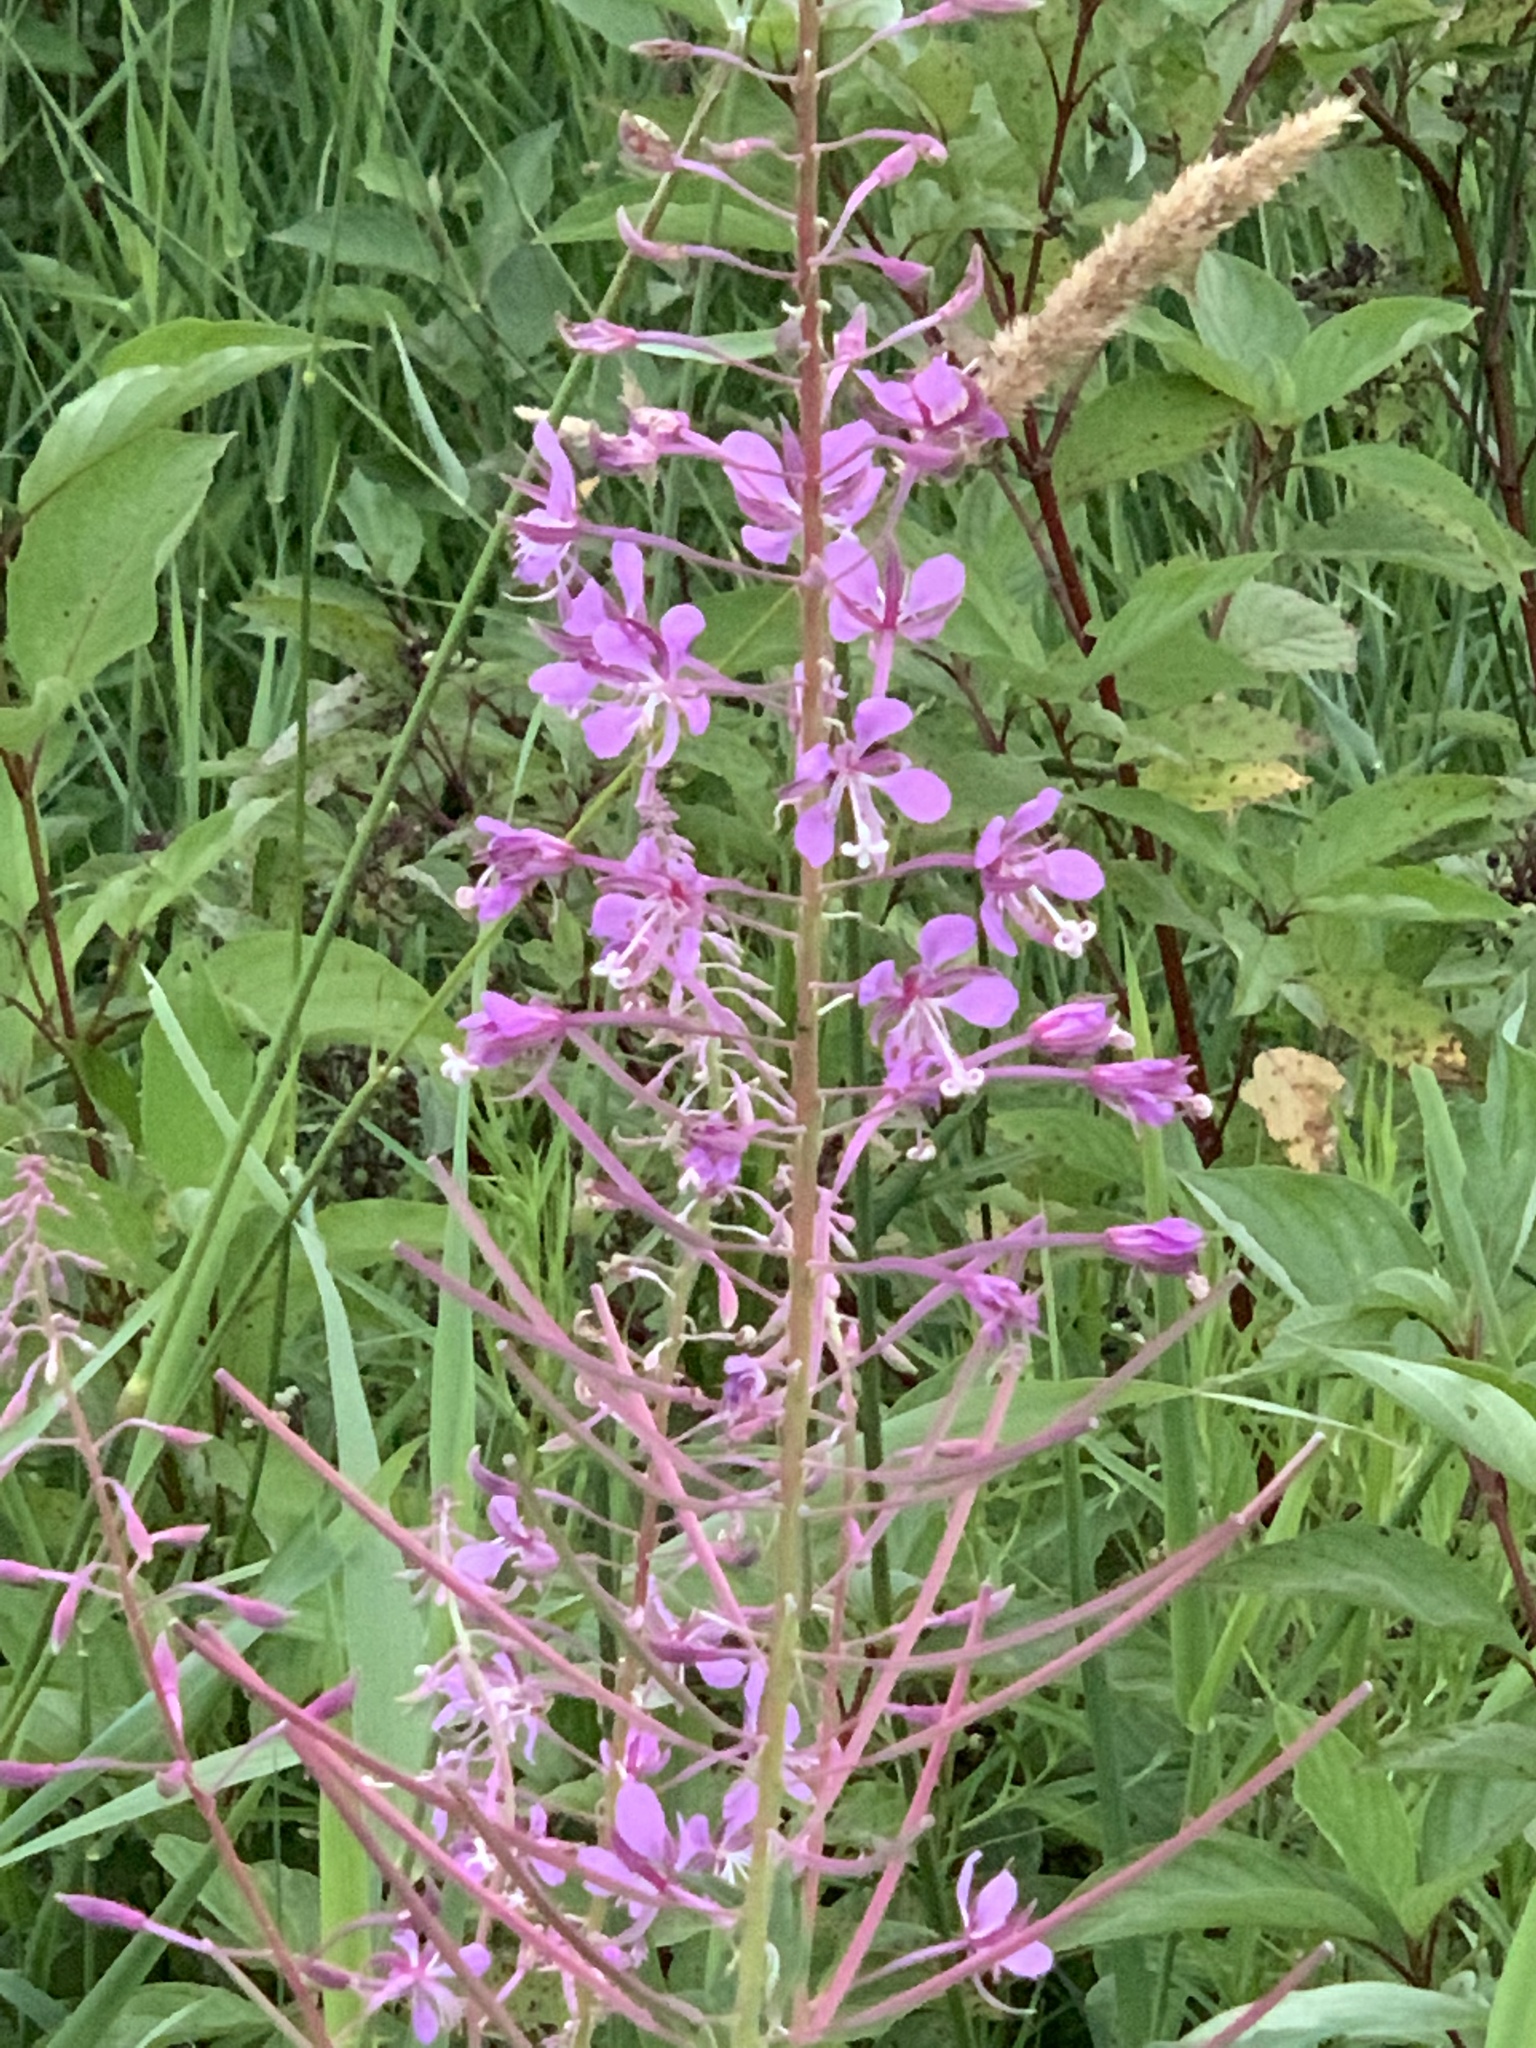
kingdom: Plantae
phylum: Tracheophyta
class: Magnoliopsida
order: Myrtales
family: Onagraceae
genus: Chamaenerion
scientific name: Chamaenerion angustifolium
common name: Fireweed
